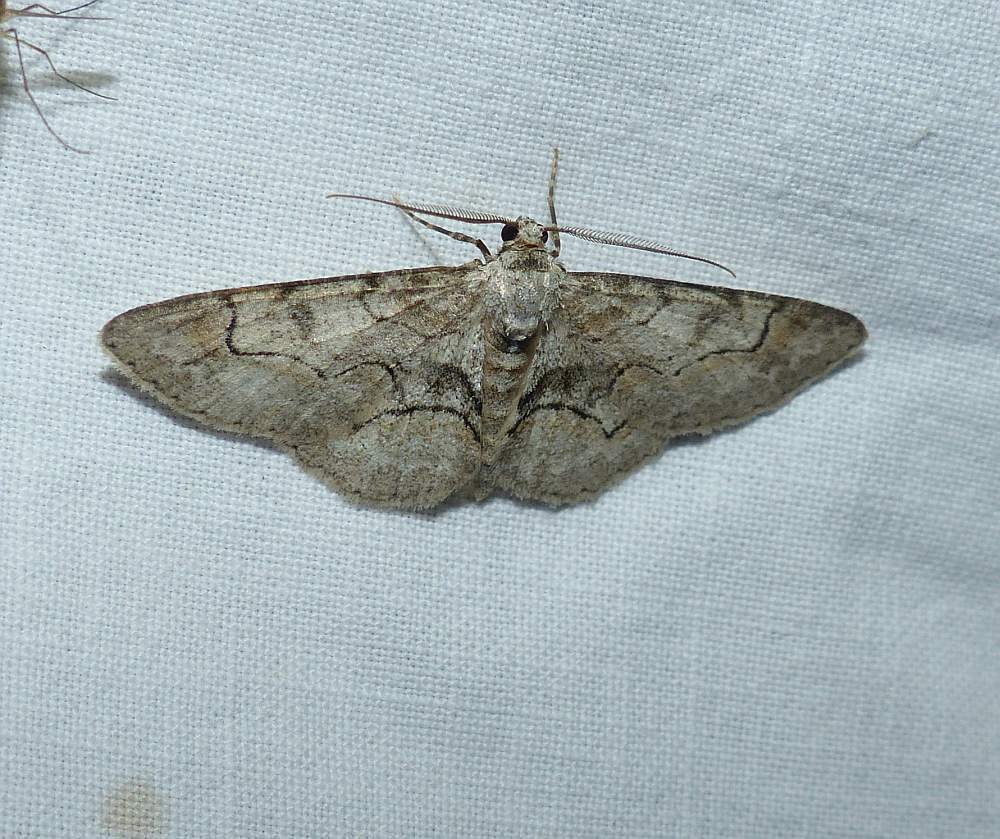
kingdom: Animalia
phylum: Arthropoda
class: Insecta
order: Lepidoptera
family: Geometridae
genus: Iridopsis
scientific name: Iridopsis larvaria
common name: Bent-line gray
